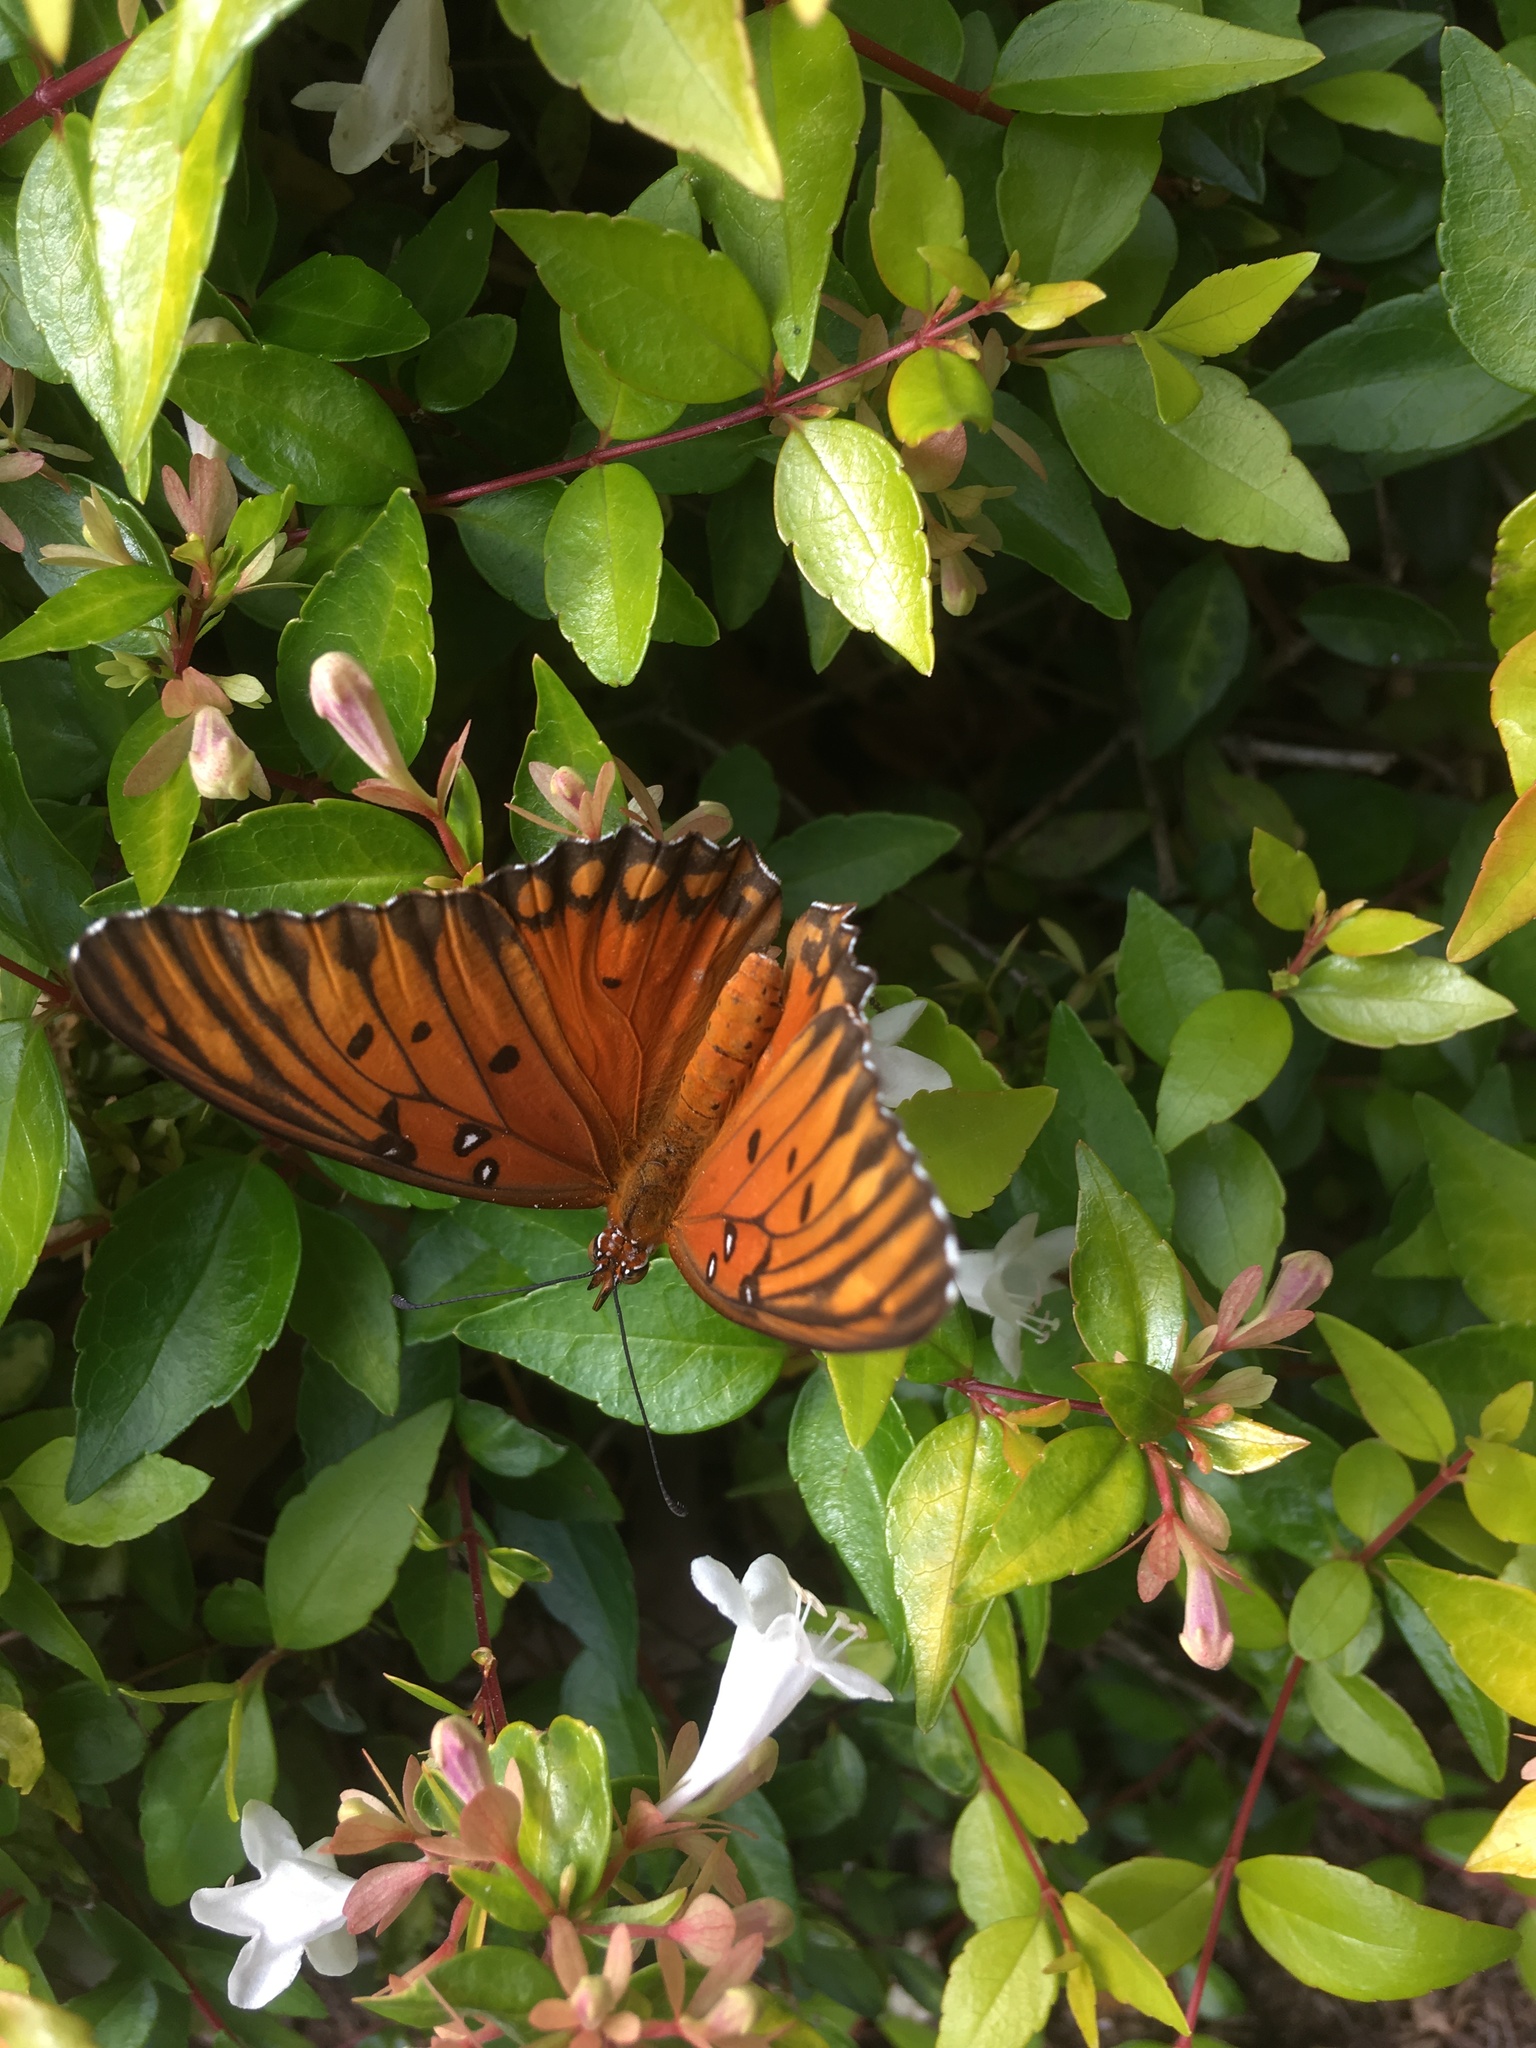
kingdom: Animalia
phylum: Arthropoda
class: Insecta
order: Lepidoptera
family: Nymphalidae
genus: Dione
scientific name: Dione vanillae
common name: Gulf fritillary
